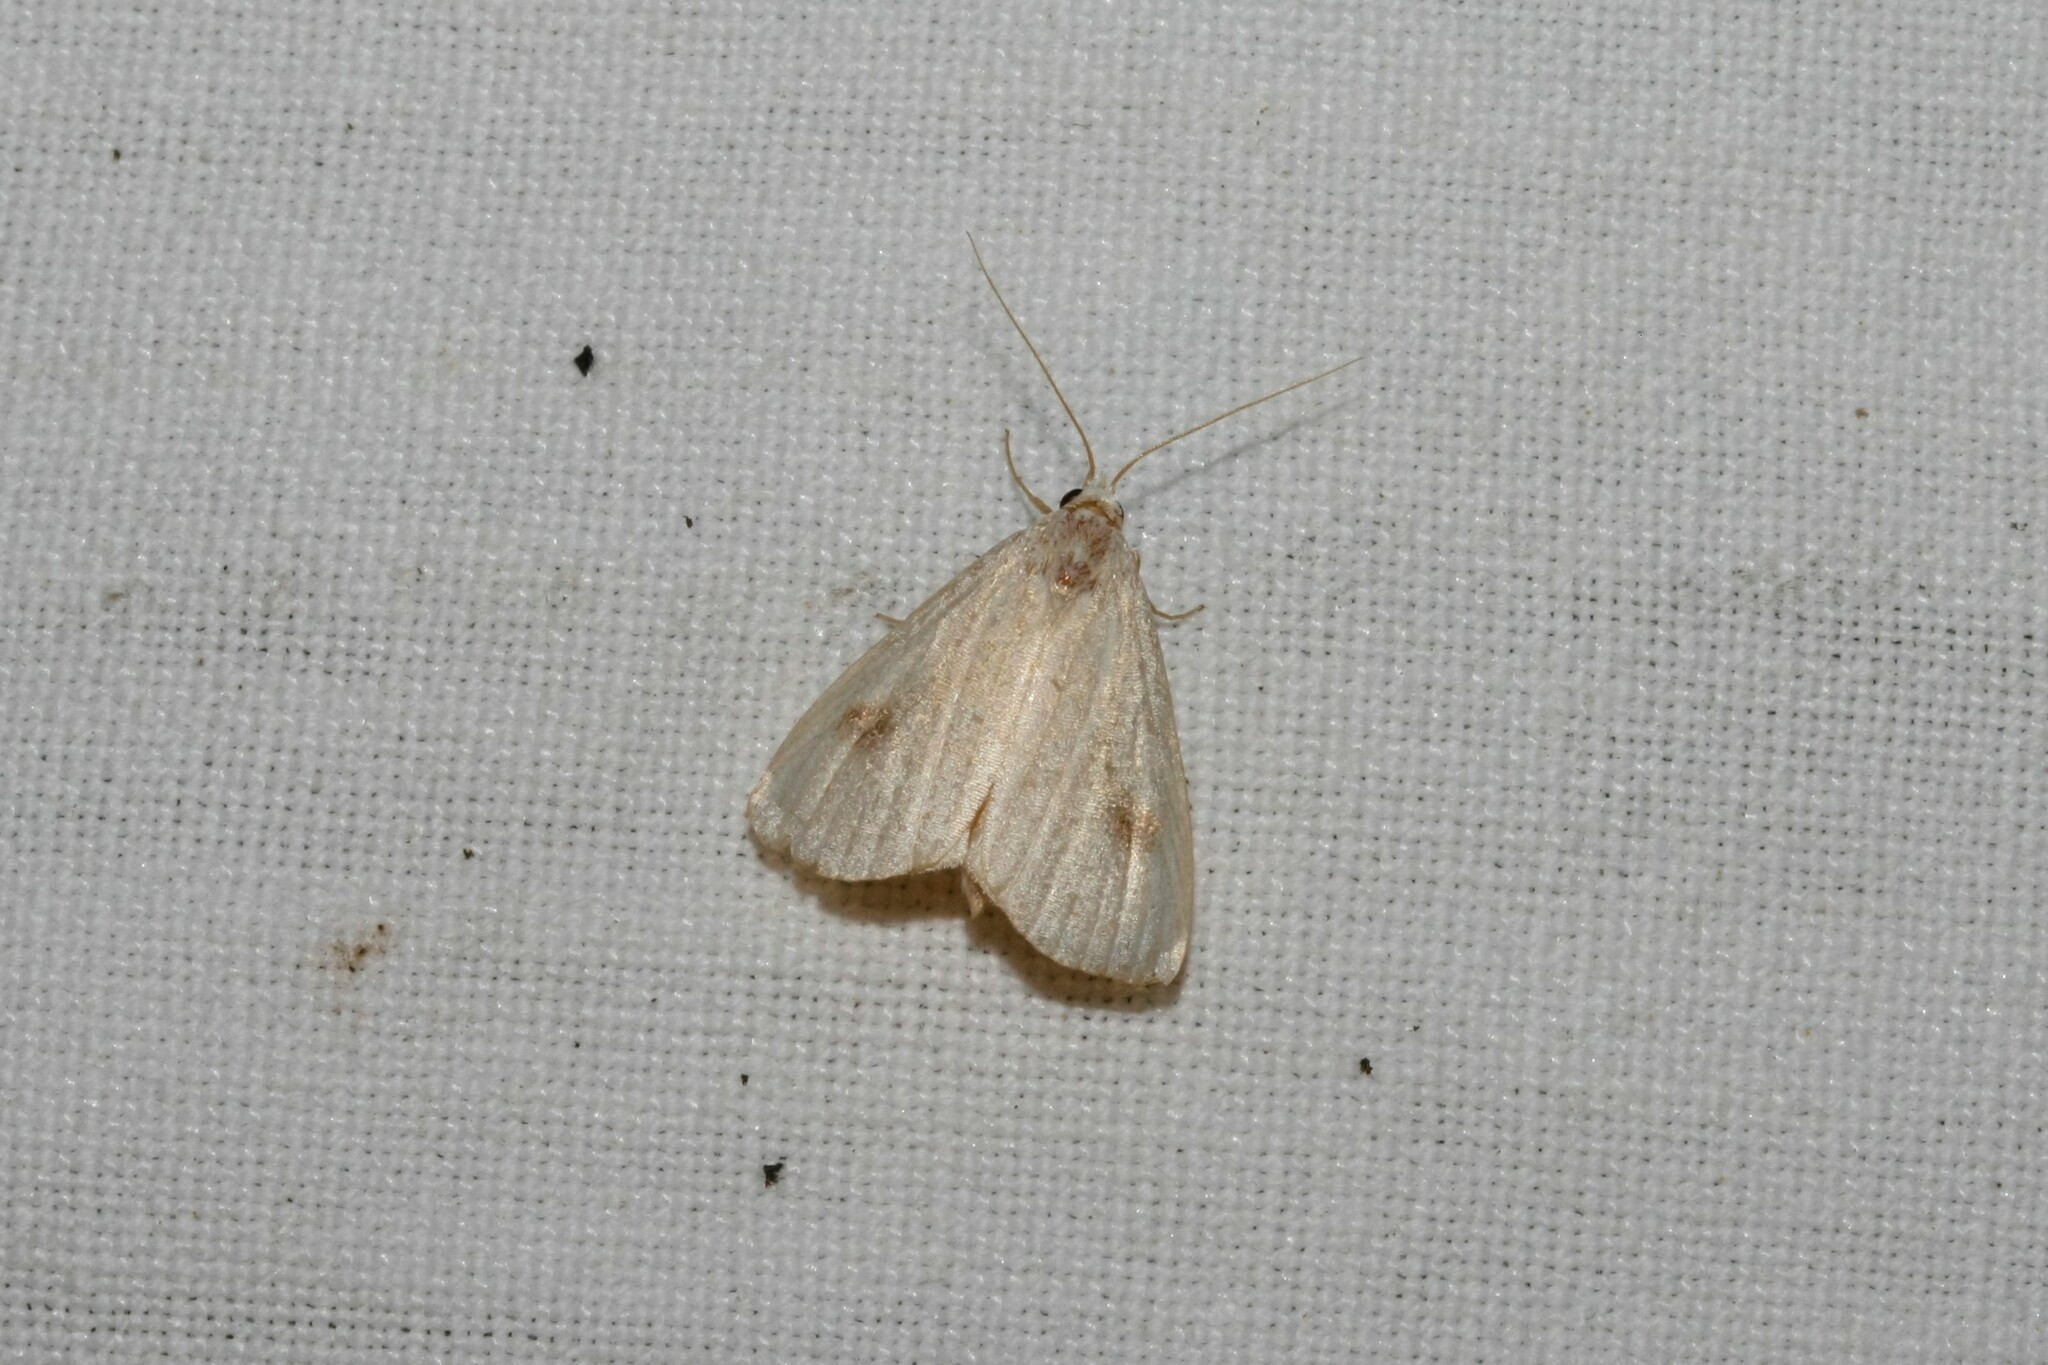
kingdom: Animalia
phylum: Arthropoda
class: Insecta
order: Lepidoptera
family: Erebidae
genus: Rivula
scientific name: Rivula sericealis
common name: Straw dot
